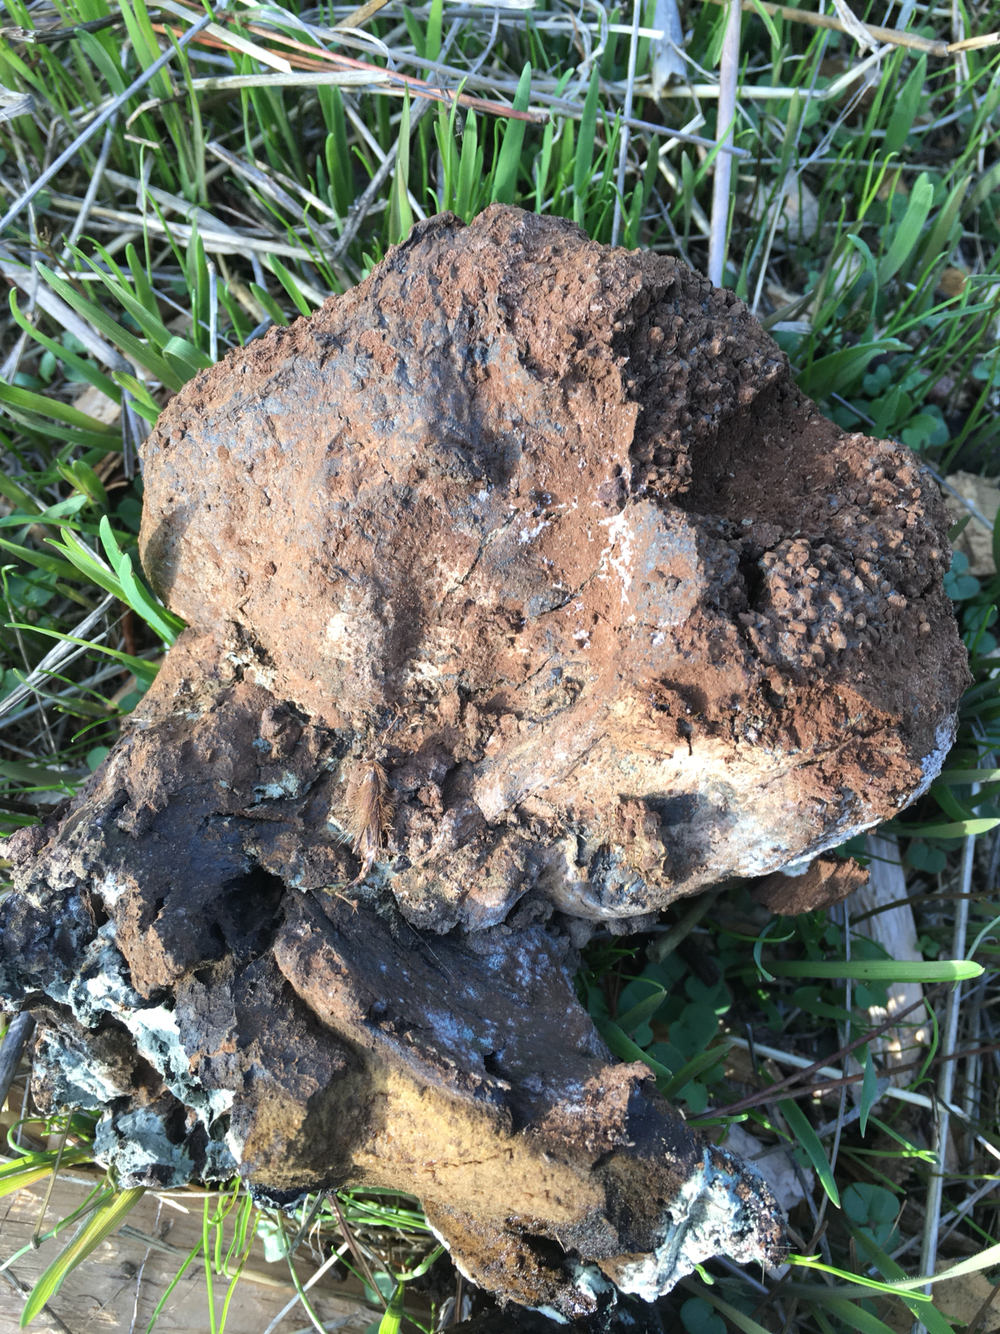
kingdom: Fungi
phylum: Basidiomycota
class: Agaricomycetes
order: Boletales
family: Sclerodermataceae
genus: Pisolithus
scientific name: Pisolithus arhizus
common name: Dyeball
